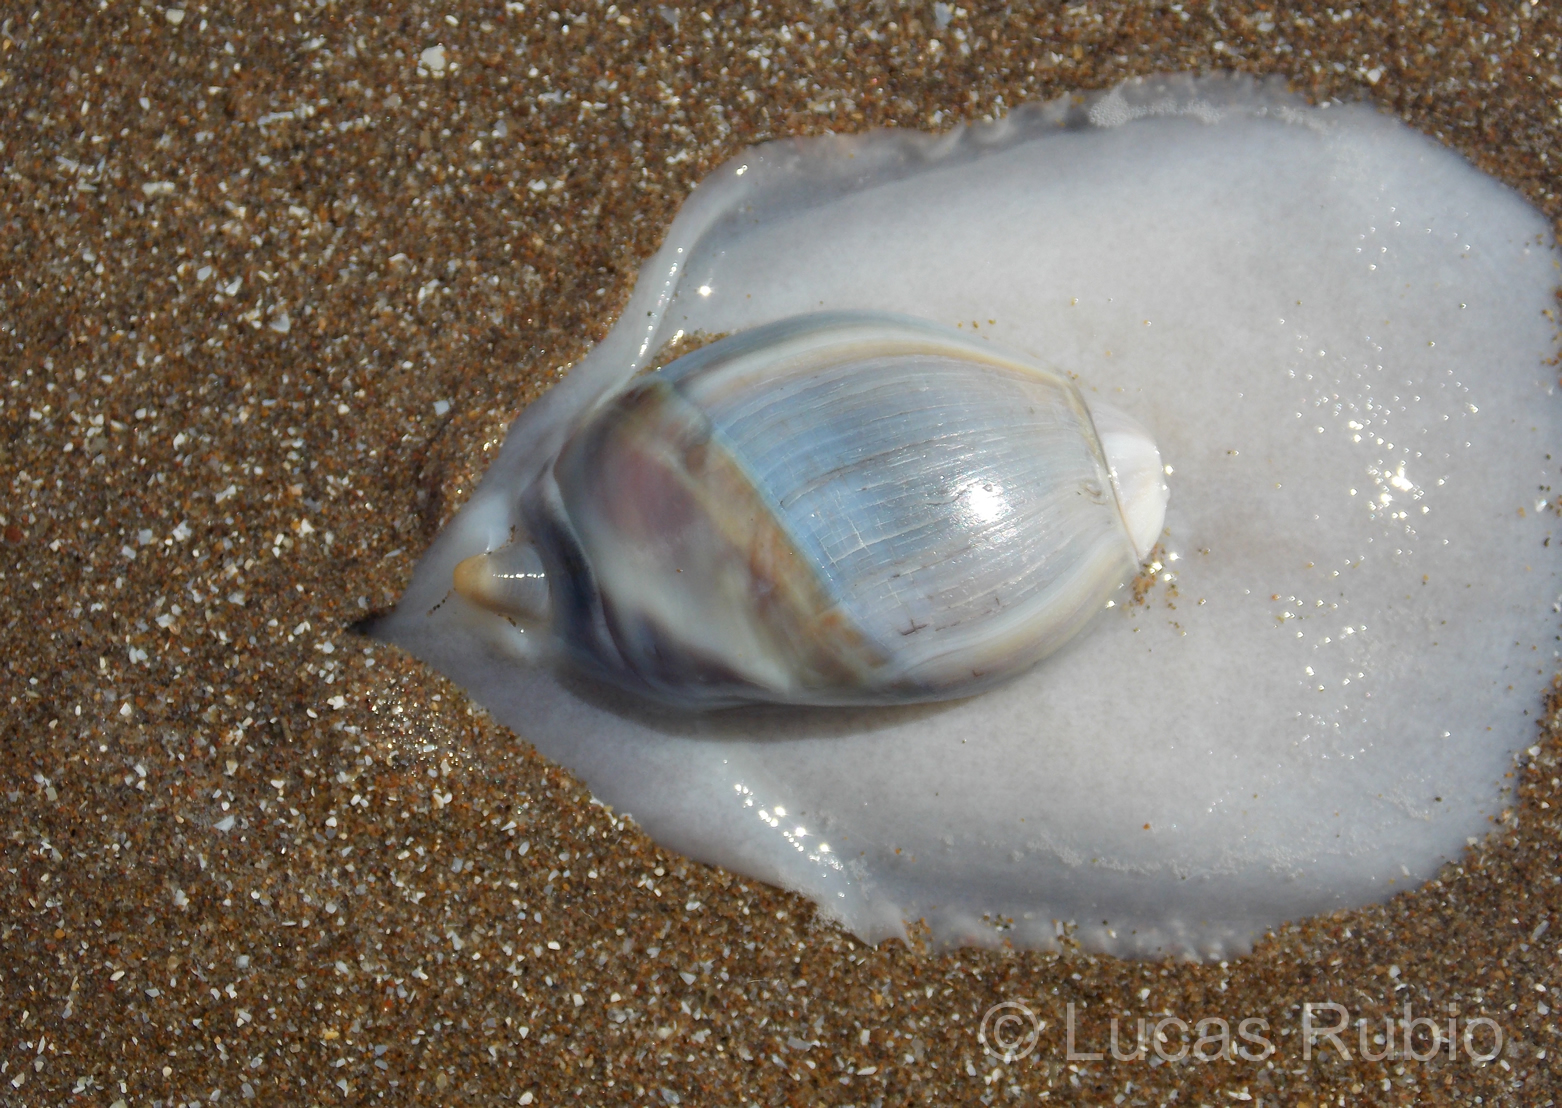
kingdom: Animalia
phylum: Mollusca
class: Gastropoda
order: Neogastropoda
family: Olividae
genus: Olivancillaria
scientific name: Olivancillaria auricularia
